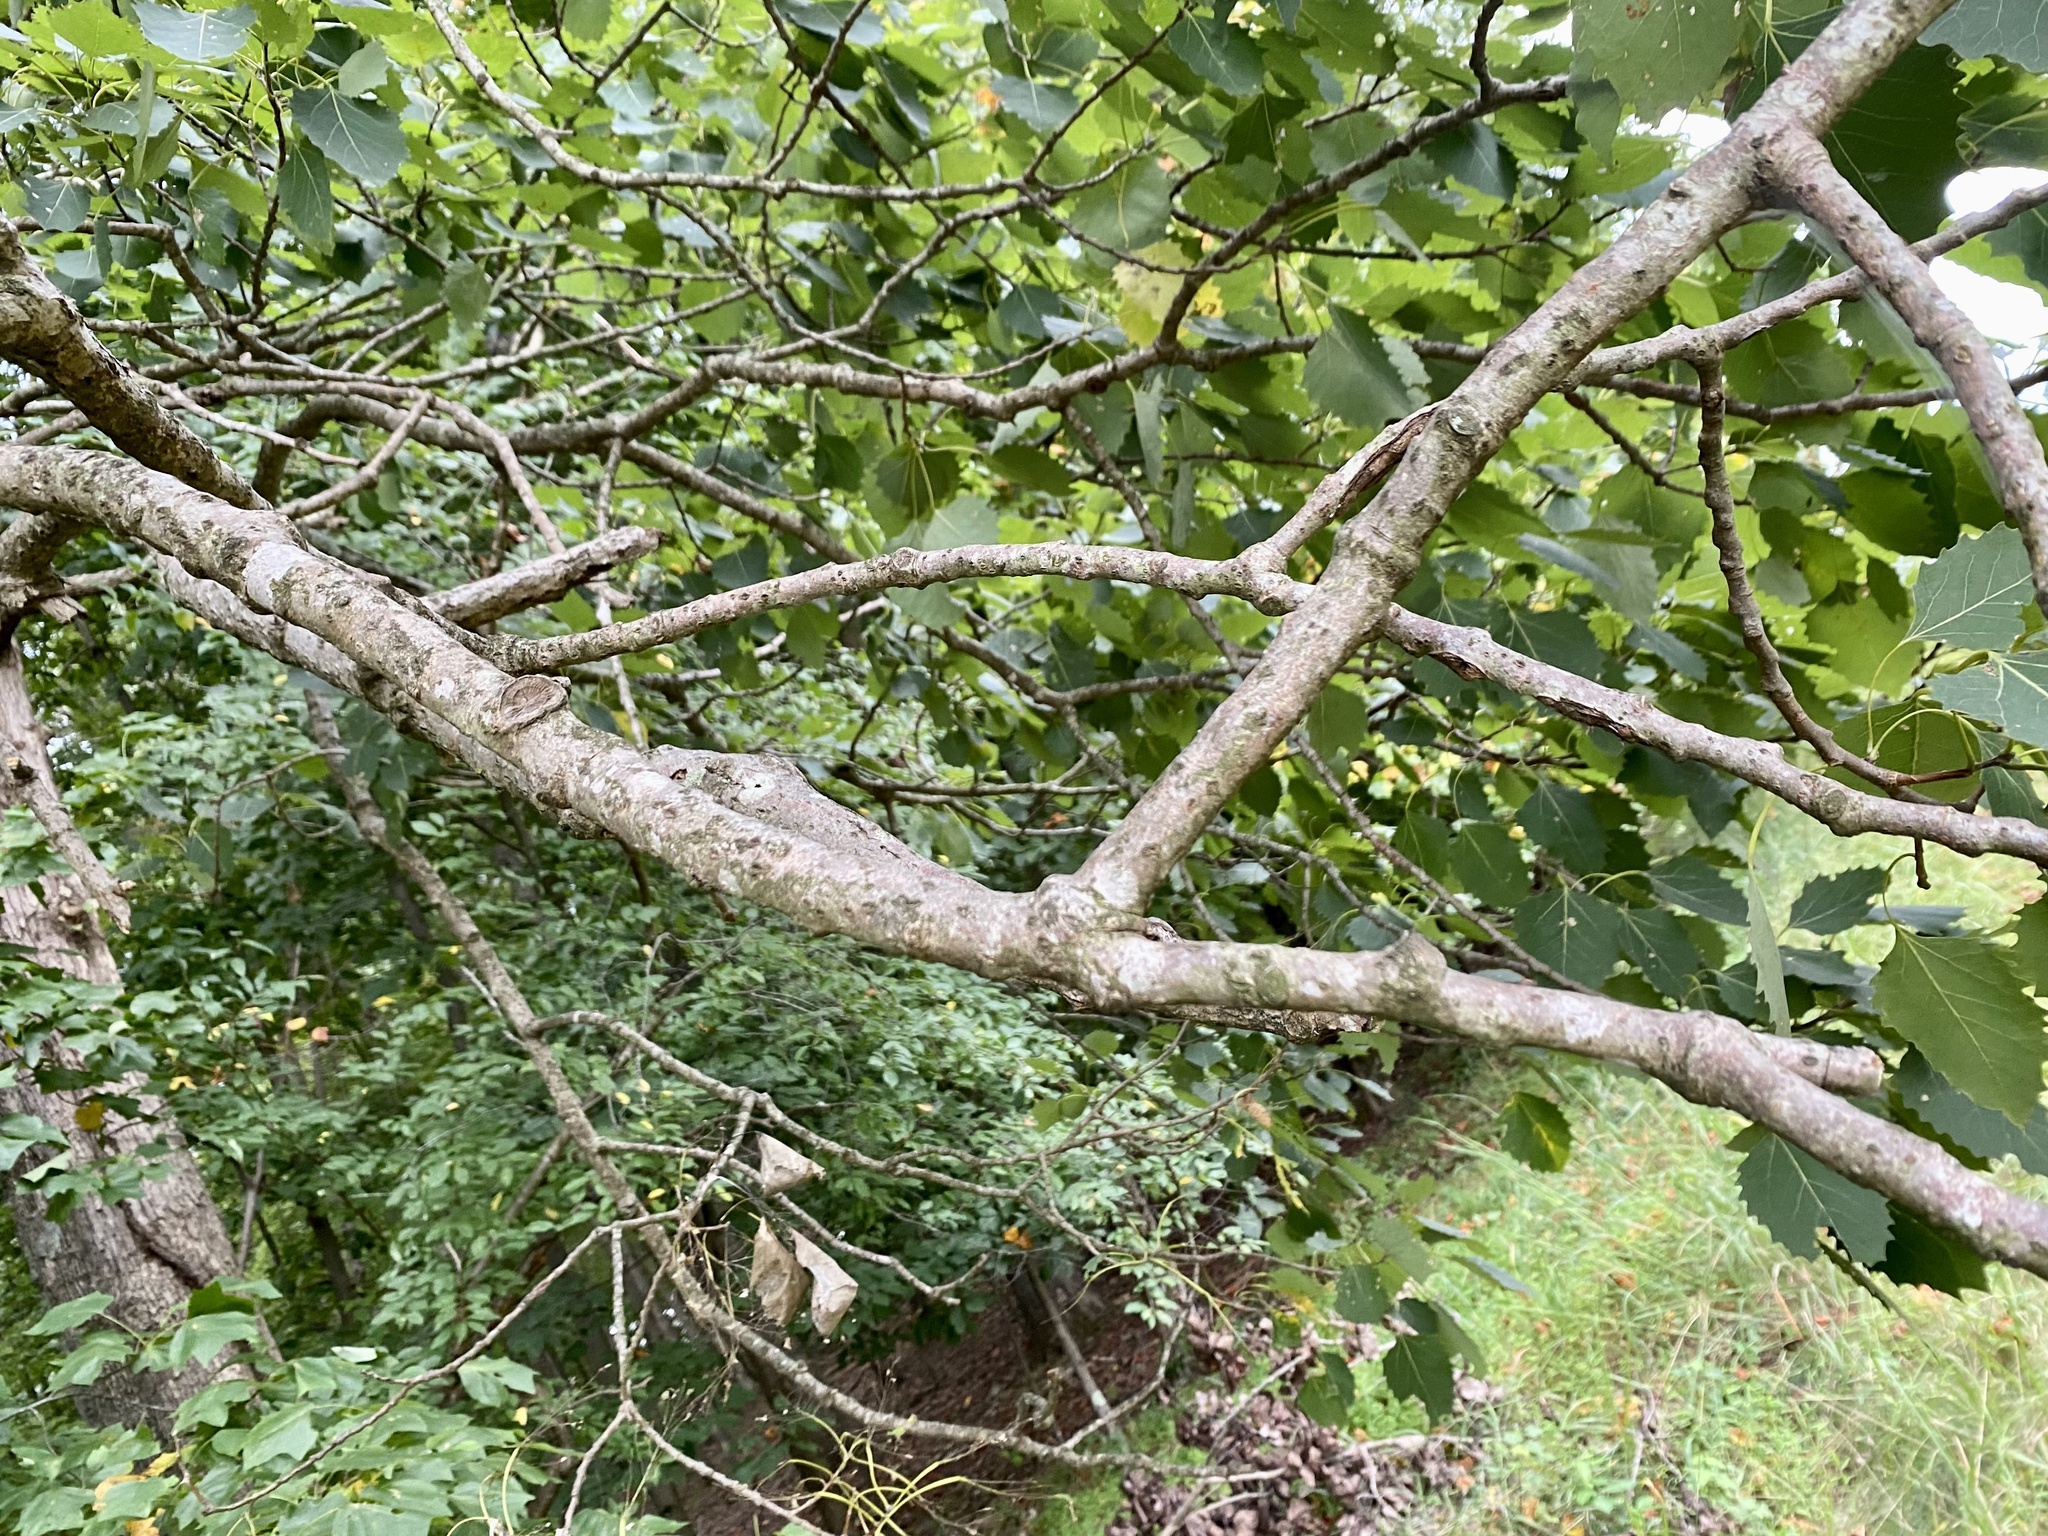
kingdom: Plantae
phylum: Tracheophyta
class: Magnoliopsida
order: Malpighiales
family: Salicaceae
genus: Populus
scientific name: Populus grandidentata
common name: Bigtooth aspen
